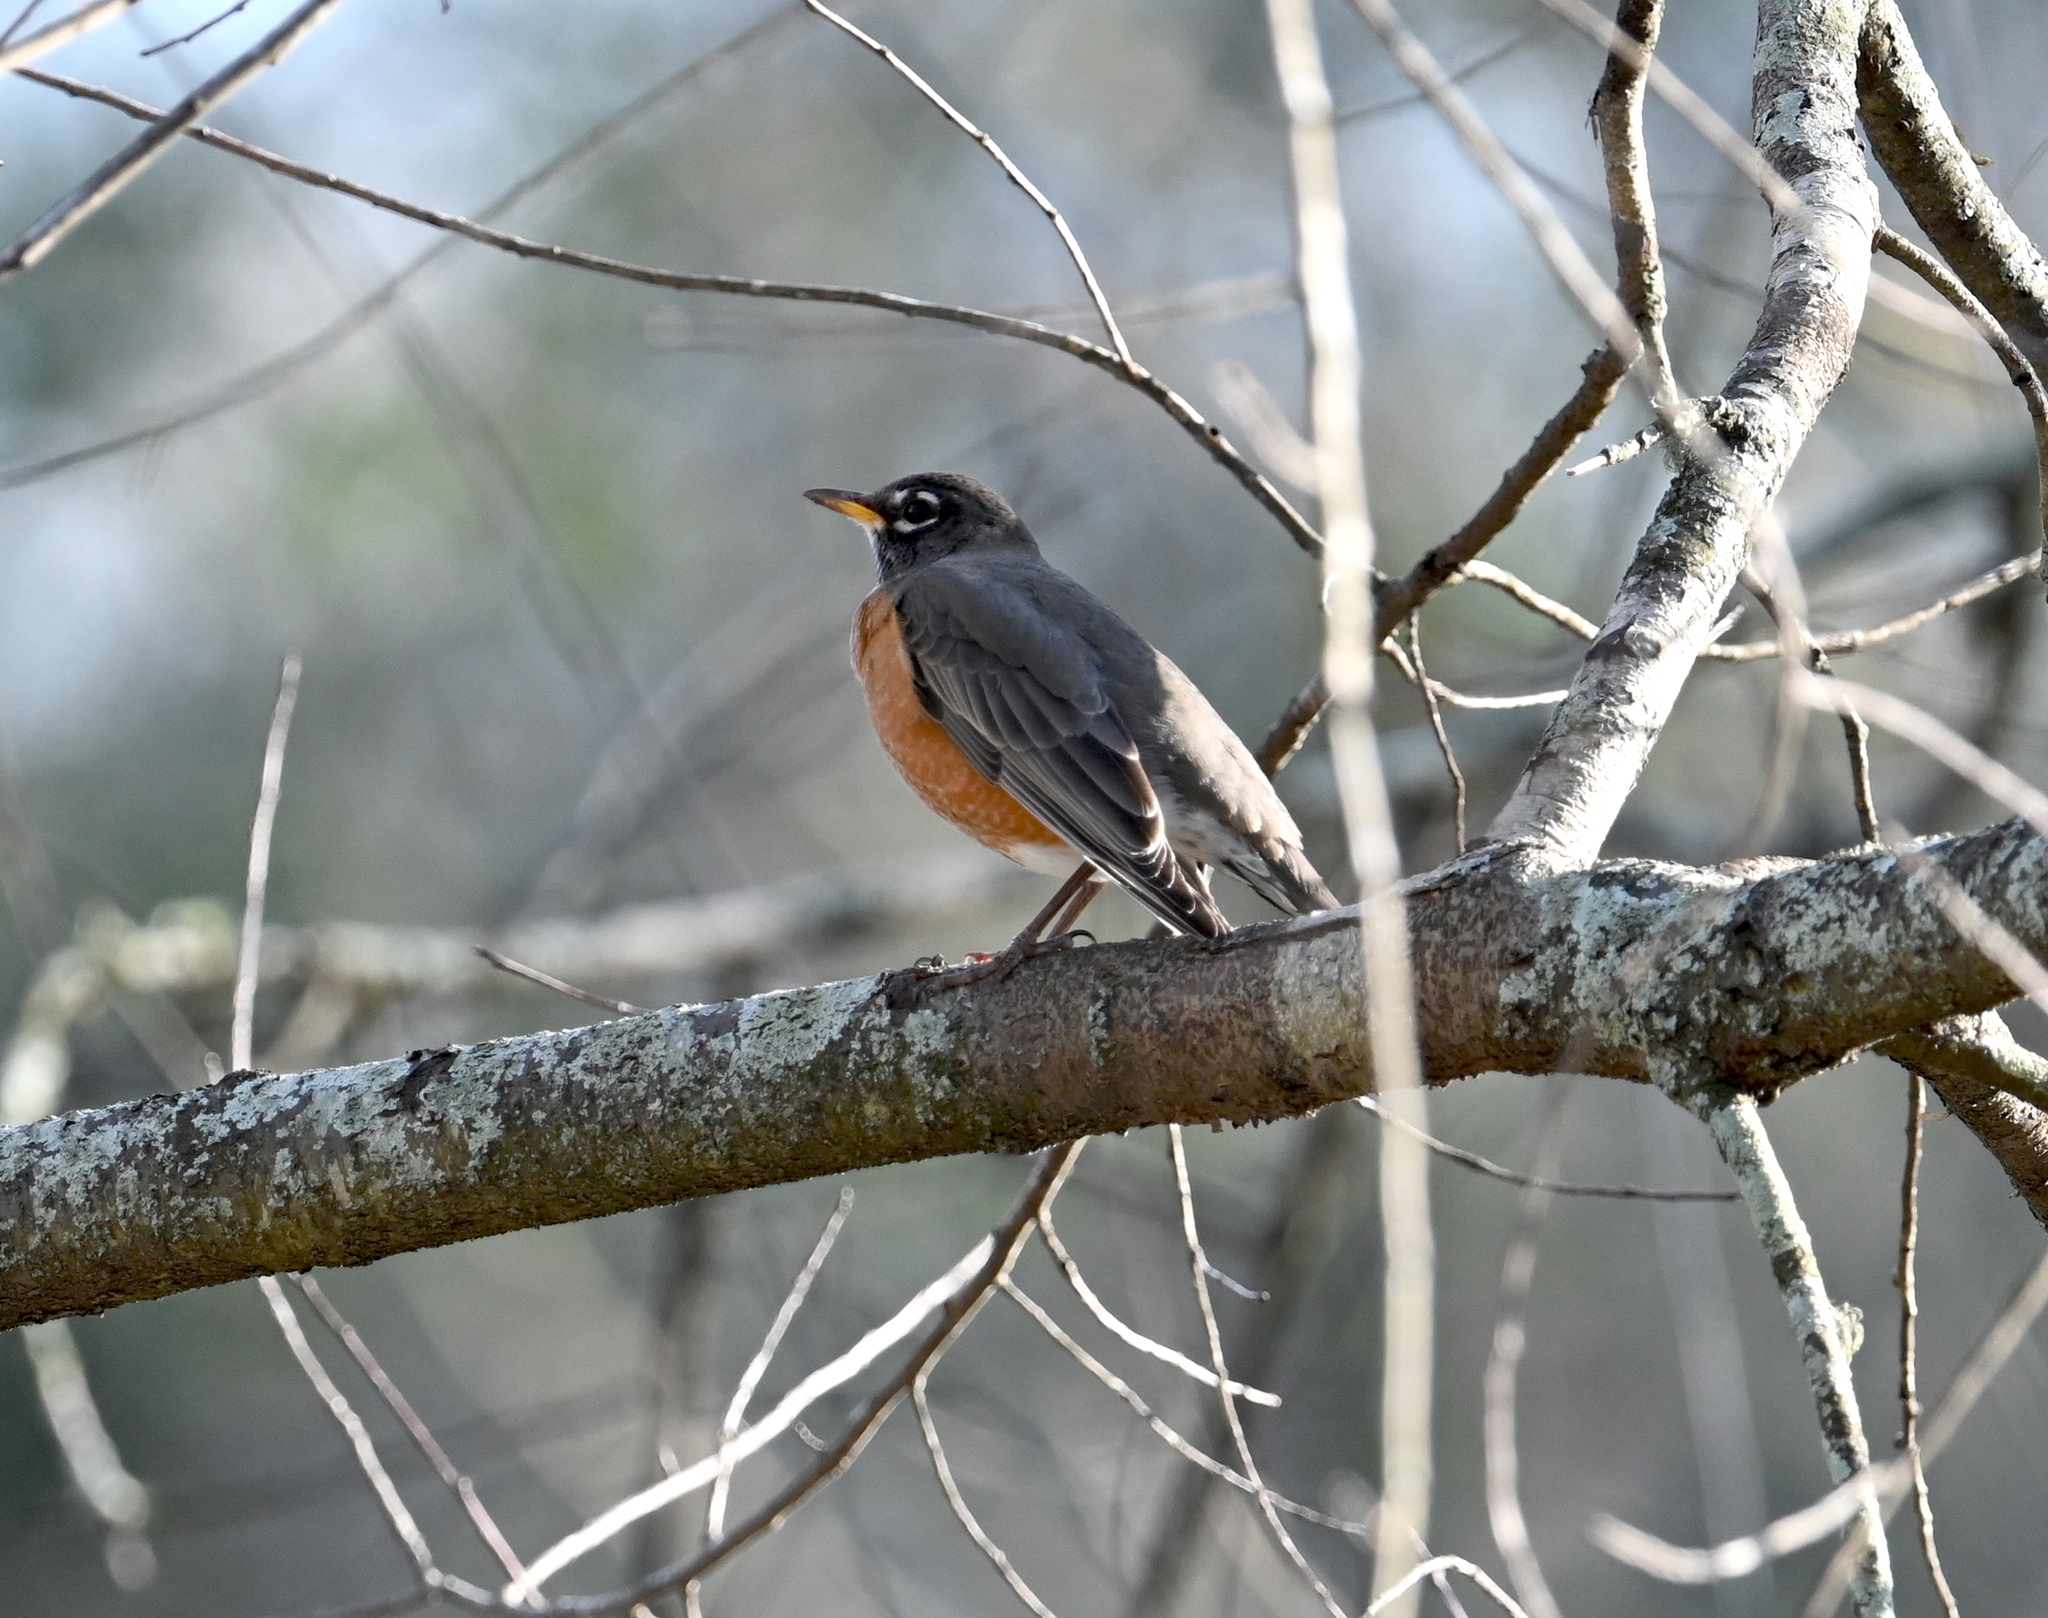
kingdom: Animalia
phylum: Chordata
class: Aves
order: Passeriformes
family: Turdidae
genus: Turdus
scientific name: Turdus migratorius
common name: American robin
